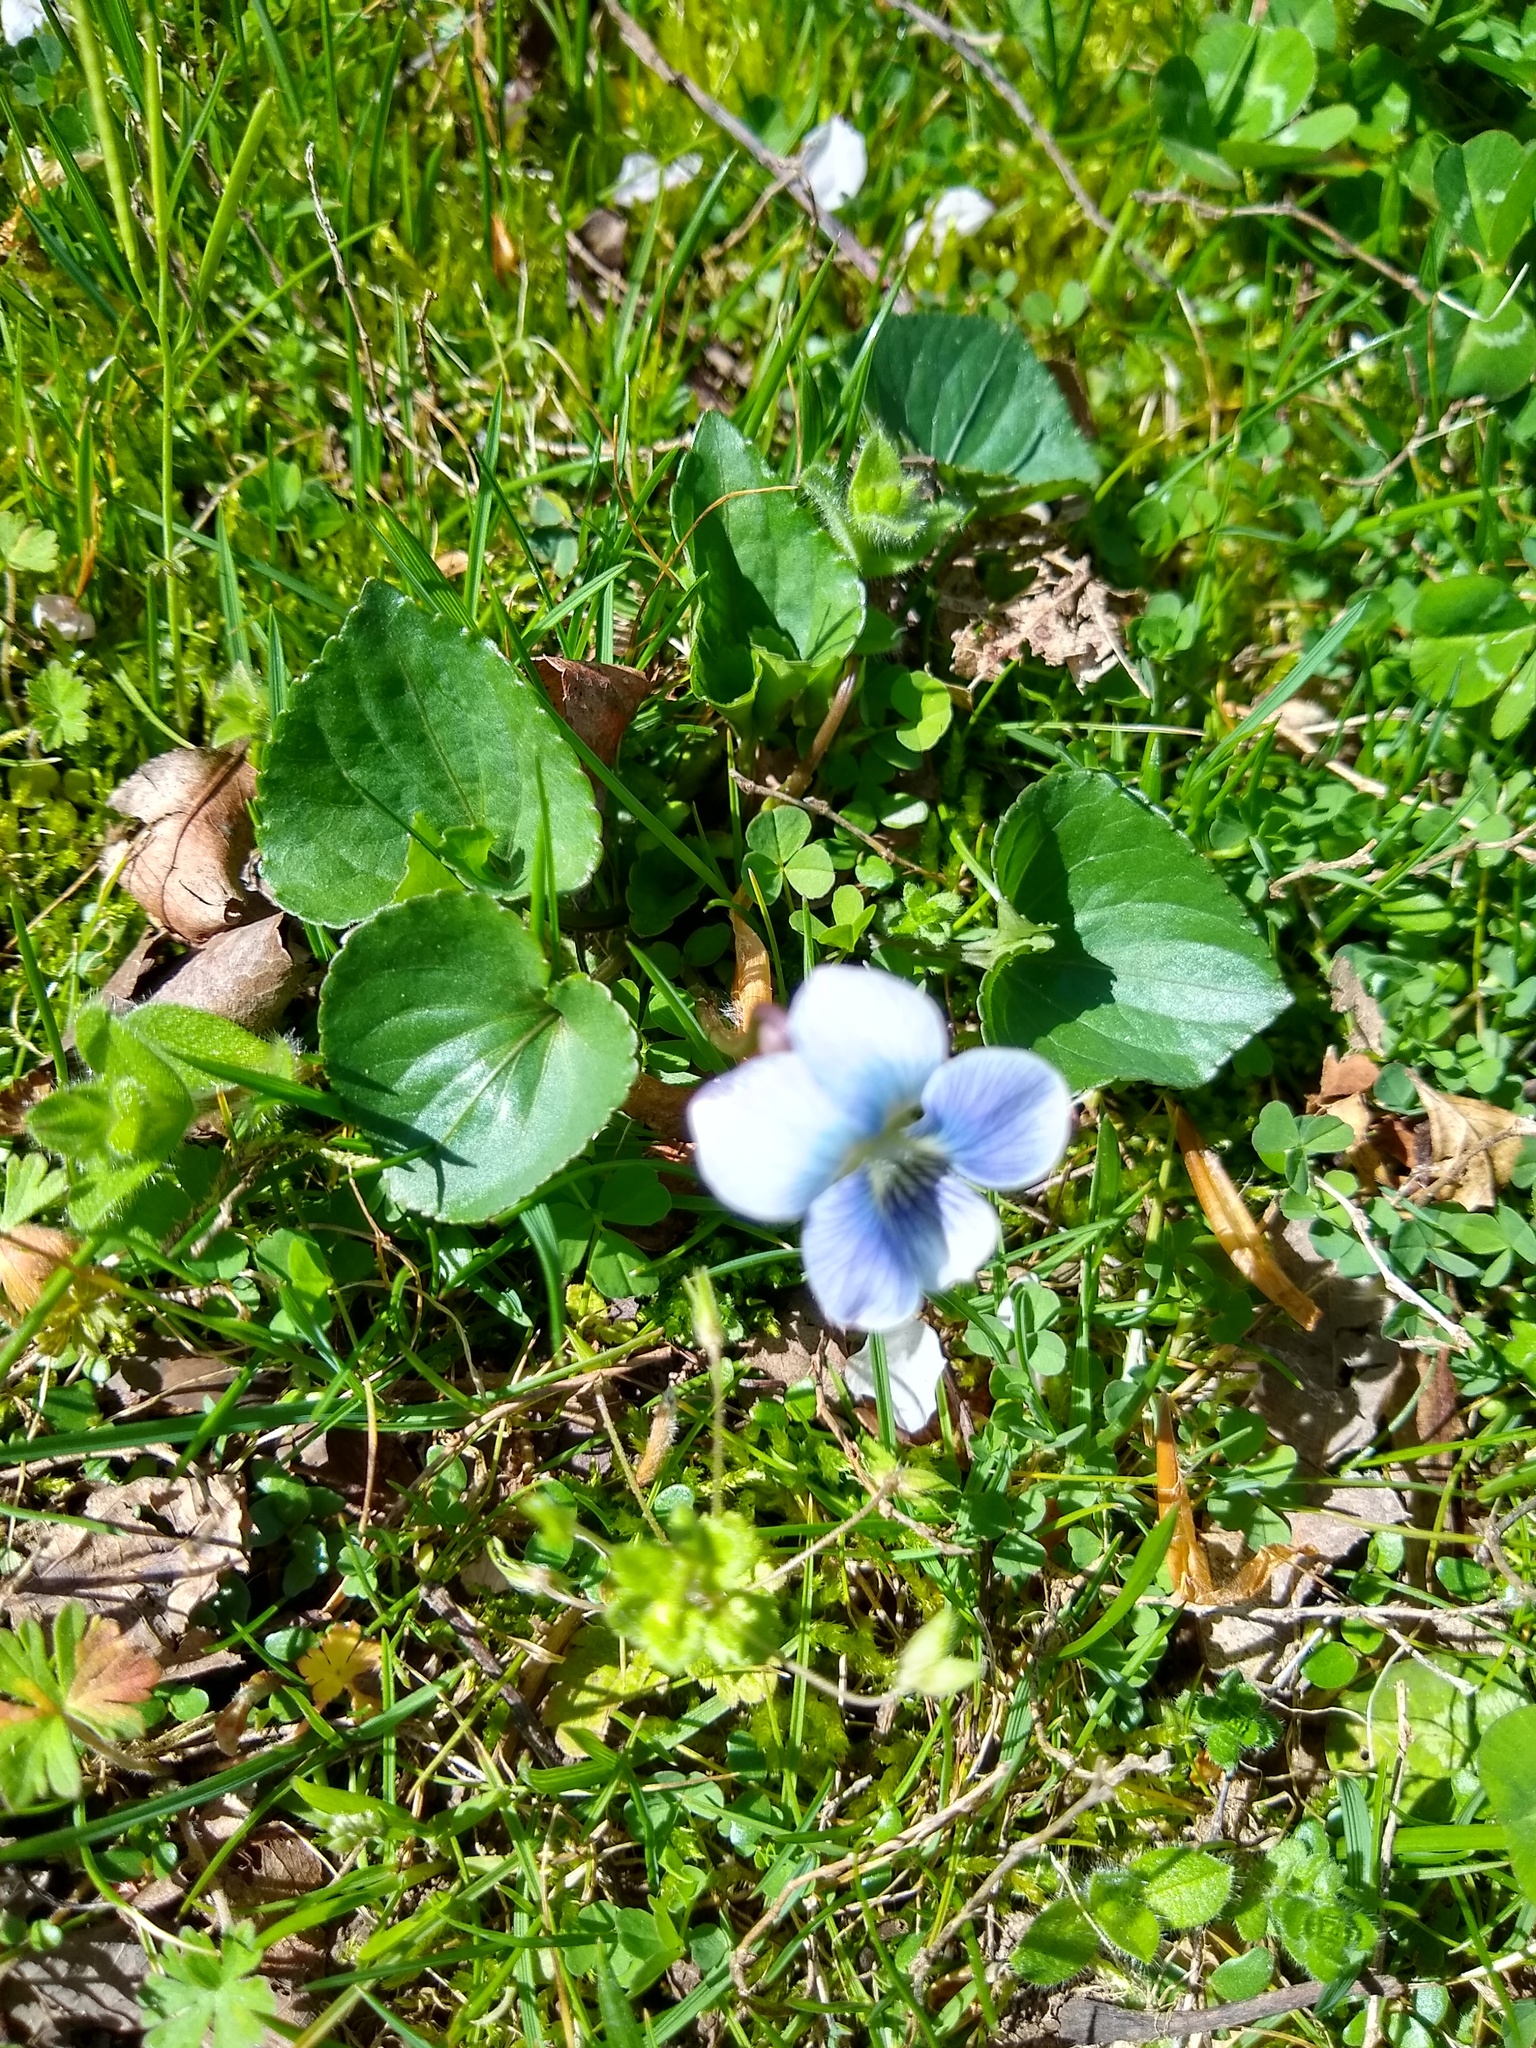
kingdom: Plantae
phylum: Tracheophyta
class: Magnoliopsida
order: Malpighiales
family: Violaceae
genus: Viola
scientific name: Viola sororia
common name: Dooryard violet
